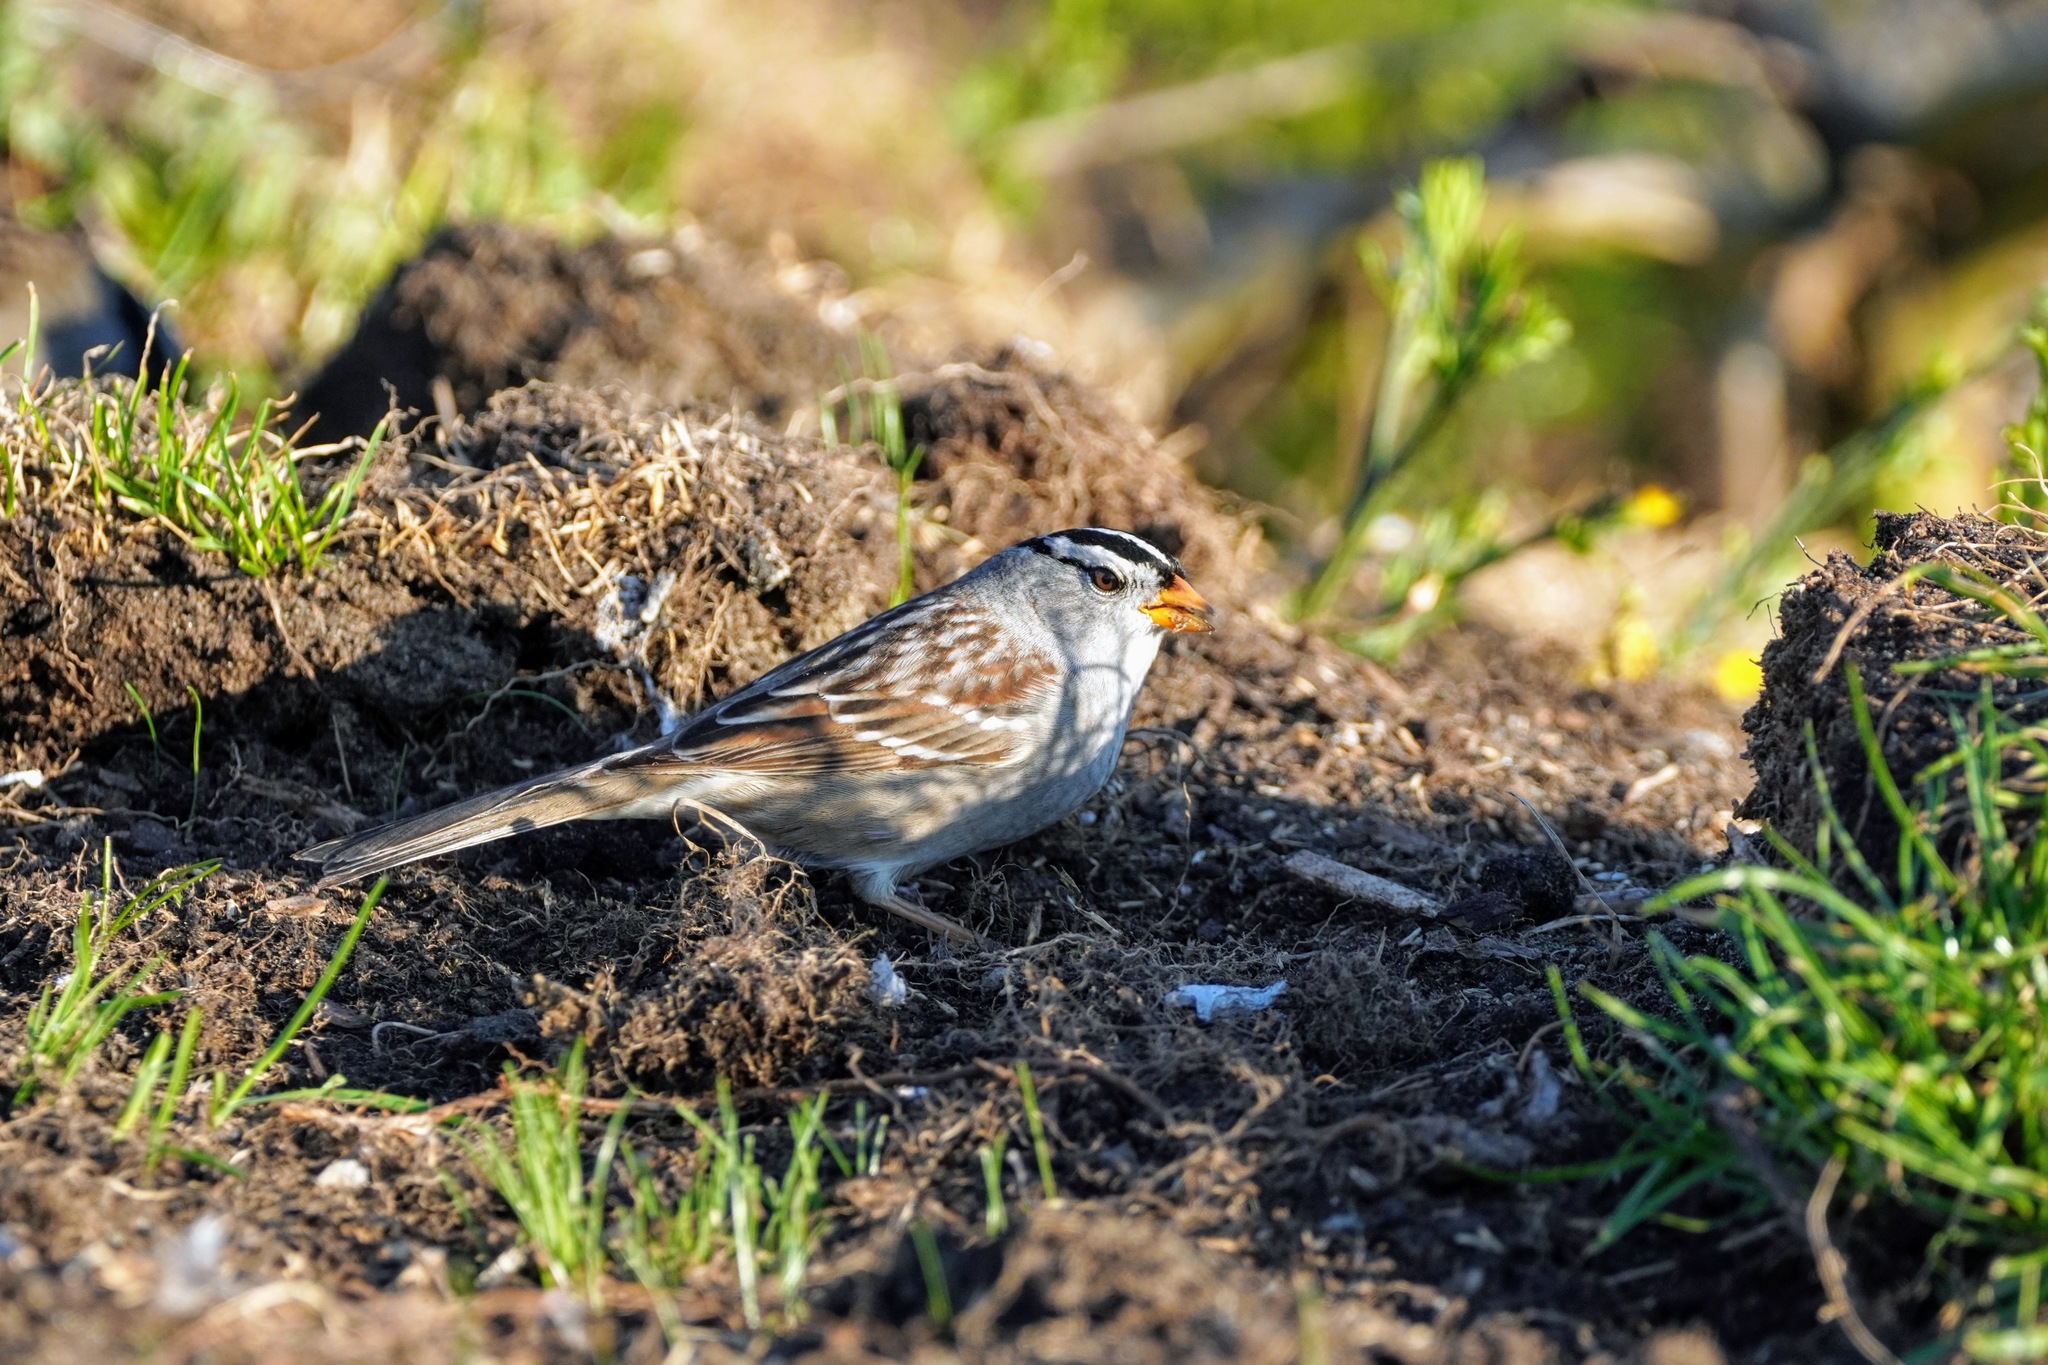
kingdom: Animalia
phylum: Chordata
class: Aves
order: Passeriformes
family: Passerellidae
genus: Zonotrichia
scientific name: Zonotrichia leucophrys
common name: White-crowned sparrow
